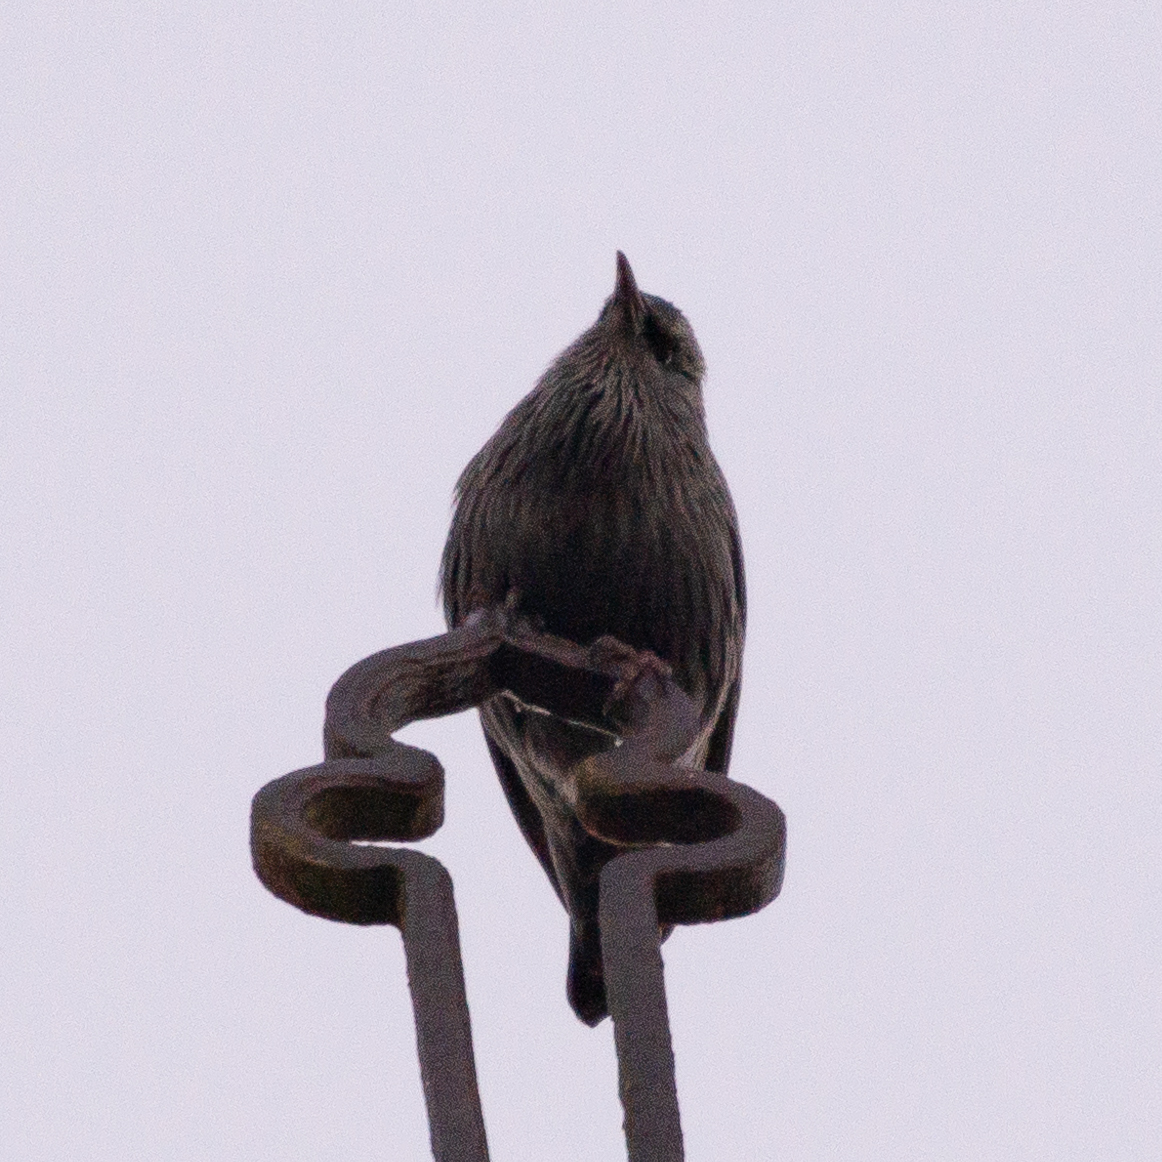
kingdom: Animalia
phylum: Chordata
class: Aves
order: Passeriformes
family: Sturnidae
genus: Sturnus
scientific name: Sturnus unicolor
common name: Spotless starling
